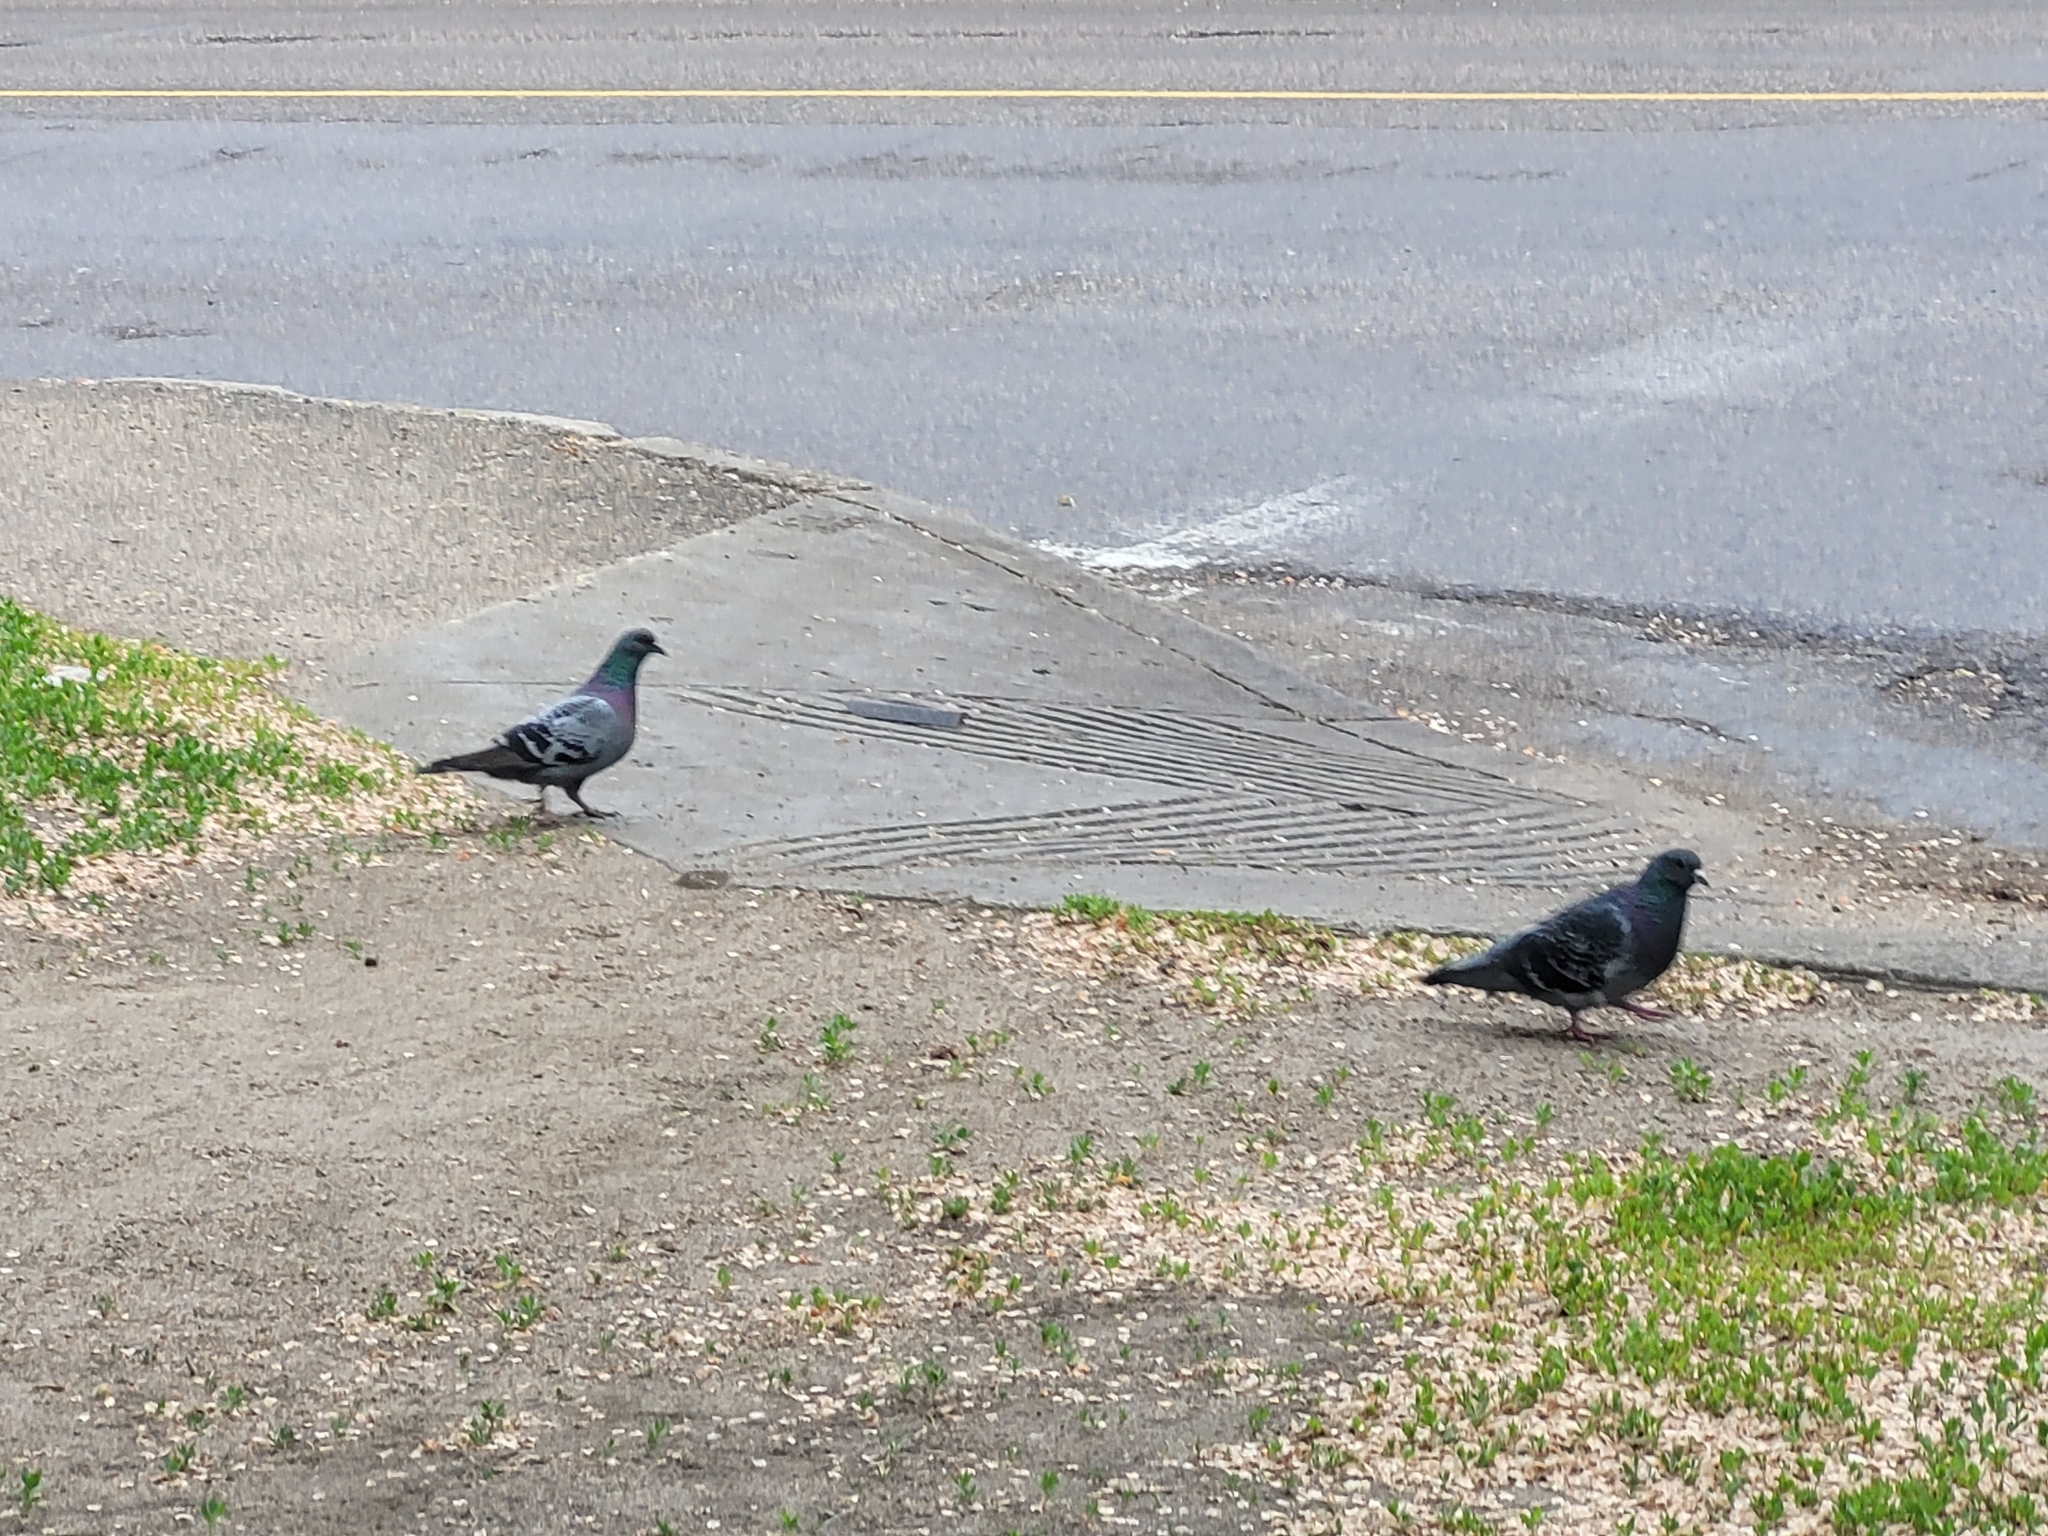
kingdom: Animalia
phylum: Chordata
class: Aves
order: Columbiformes
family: Columbidae
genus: Columba
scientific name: Columba livia
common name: Rock pigeon
